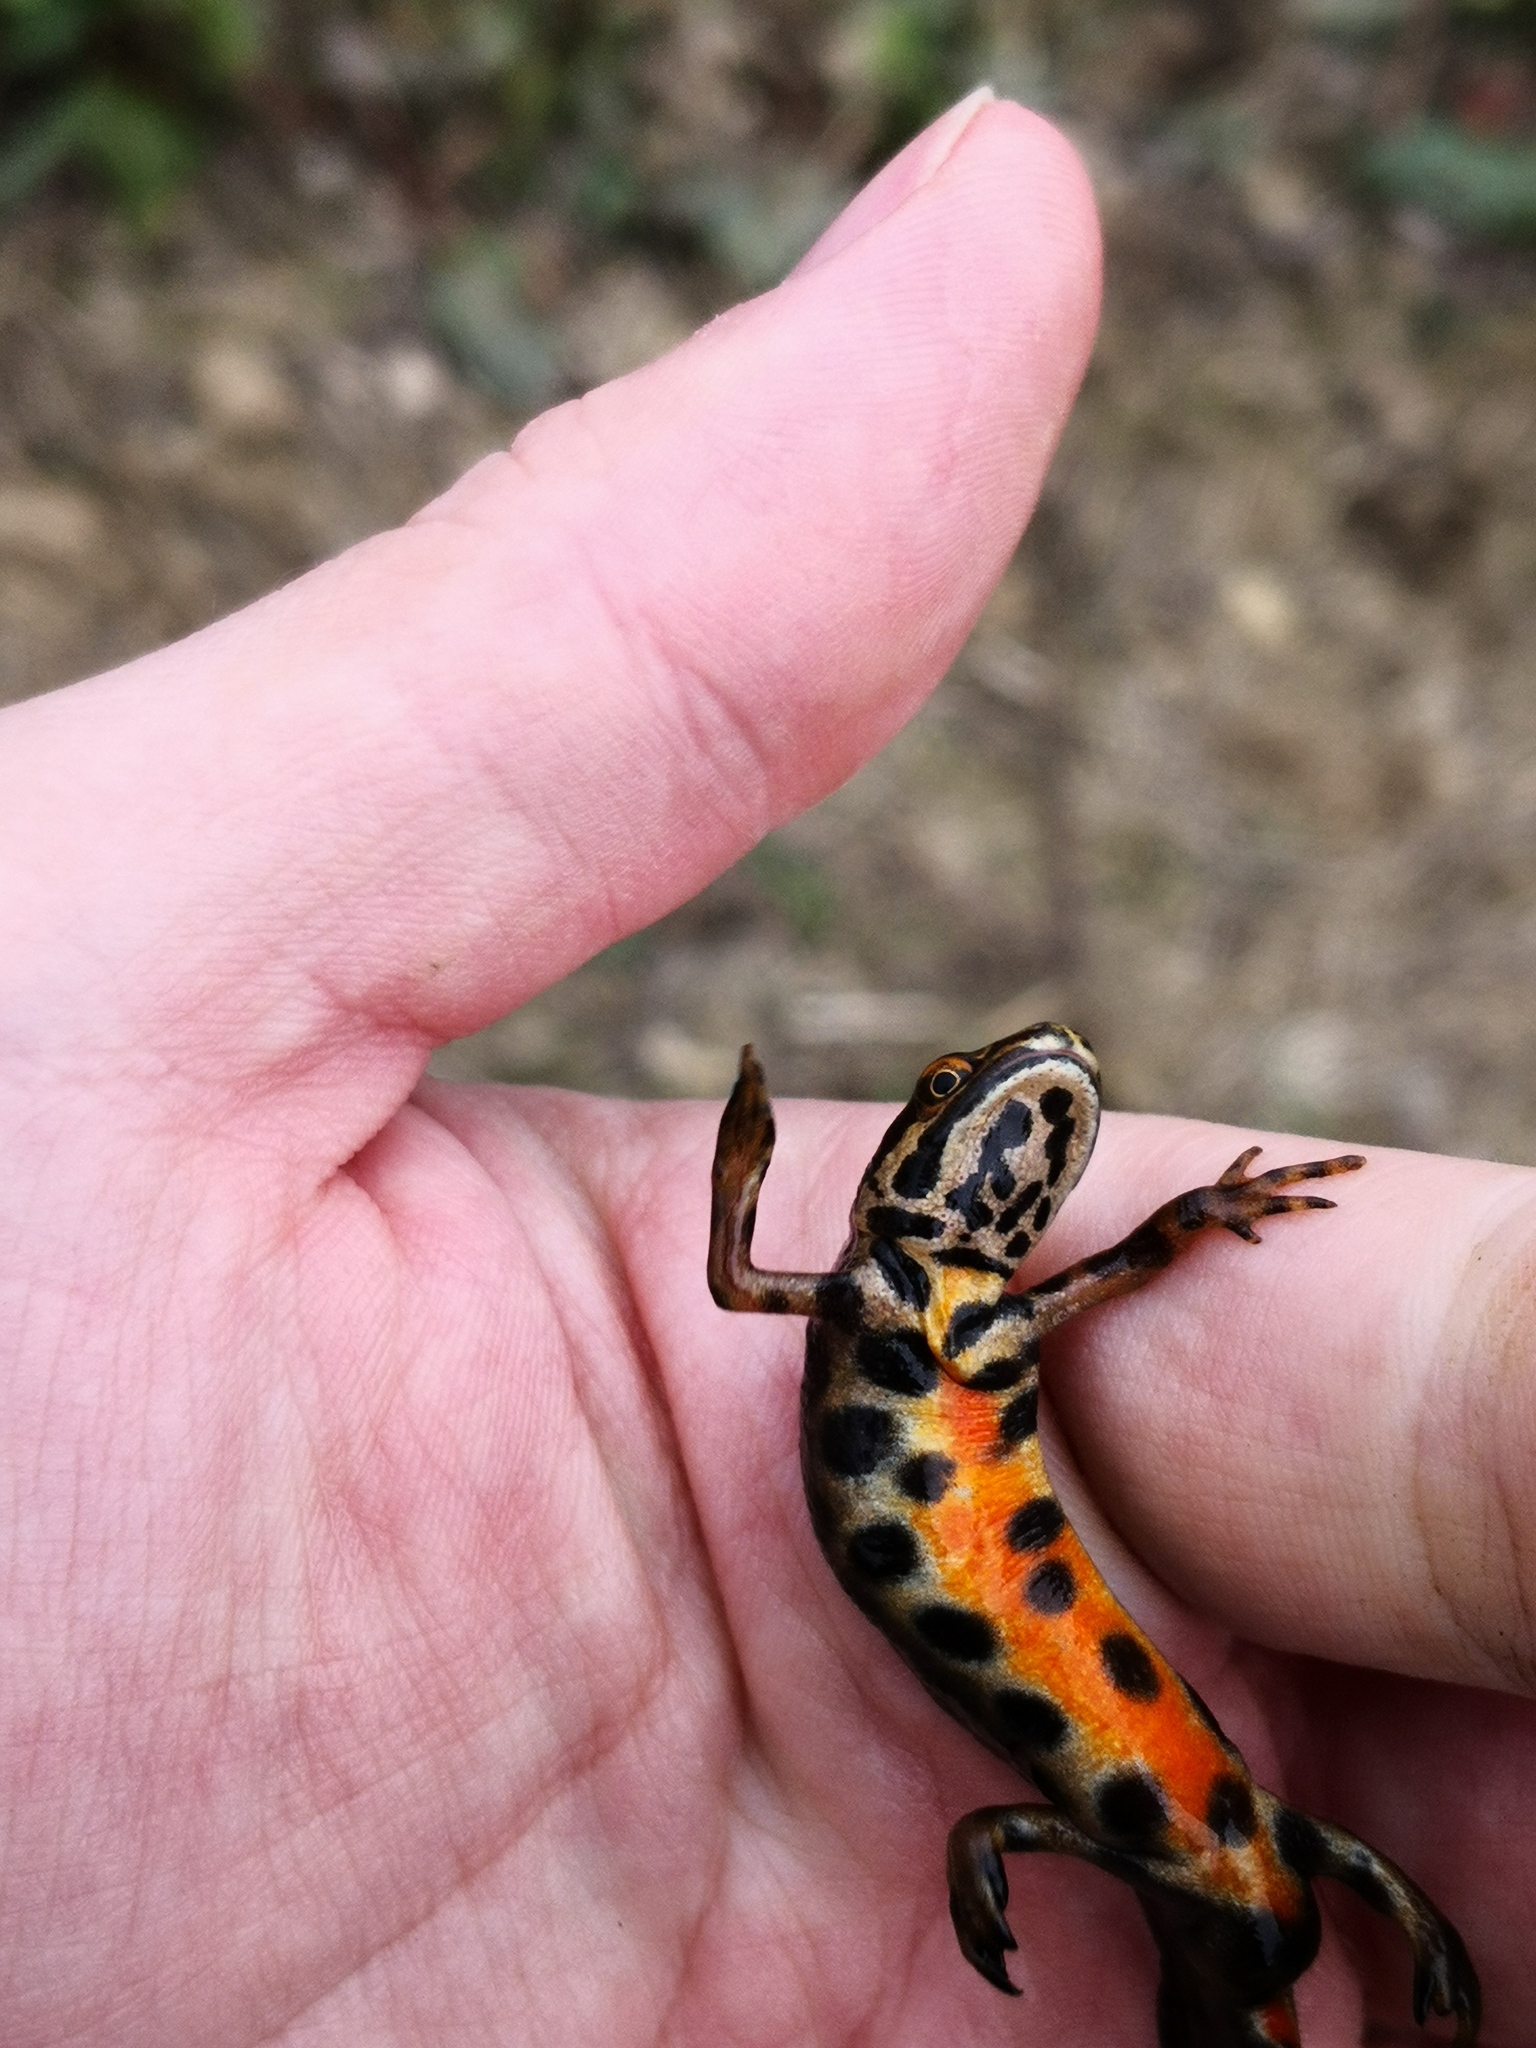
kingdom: Animalia
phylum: Chordata
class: Amphibia
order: Caudata
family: Salamandridae
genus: Lissotriton
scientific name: Lissotriton vulgaris
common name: Smooth newt
